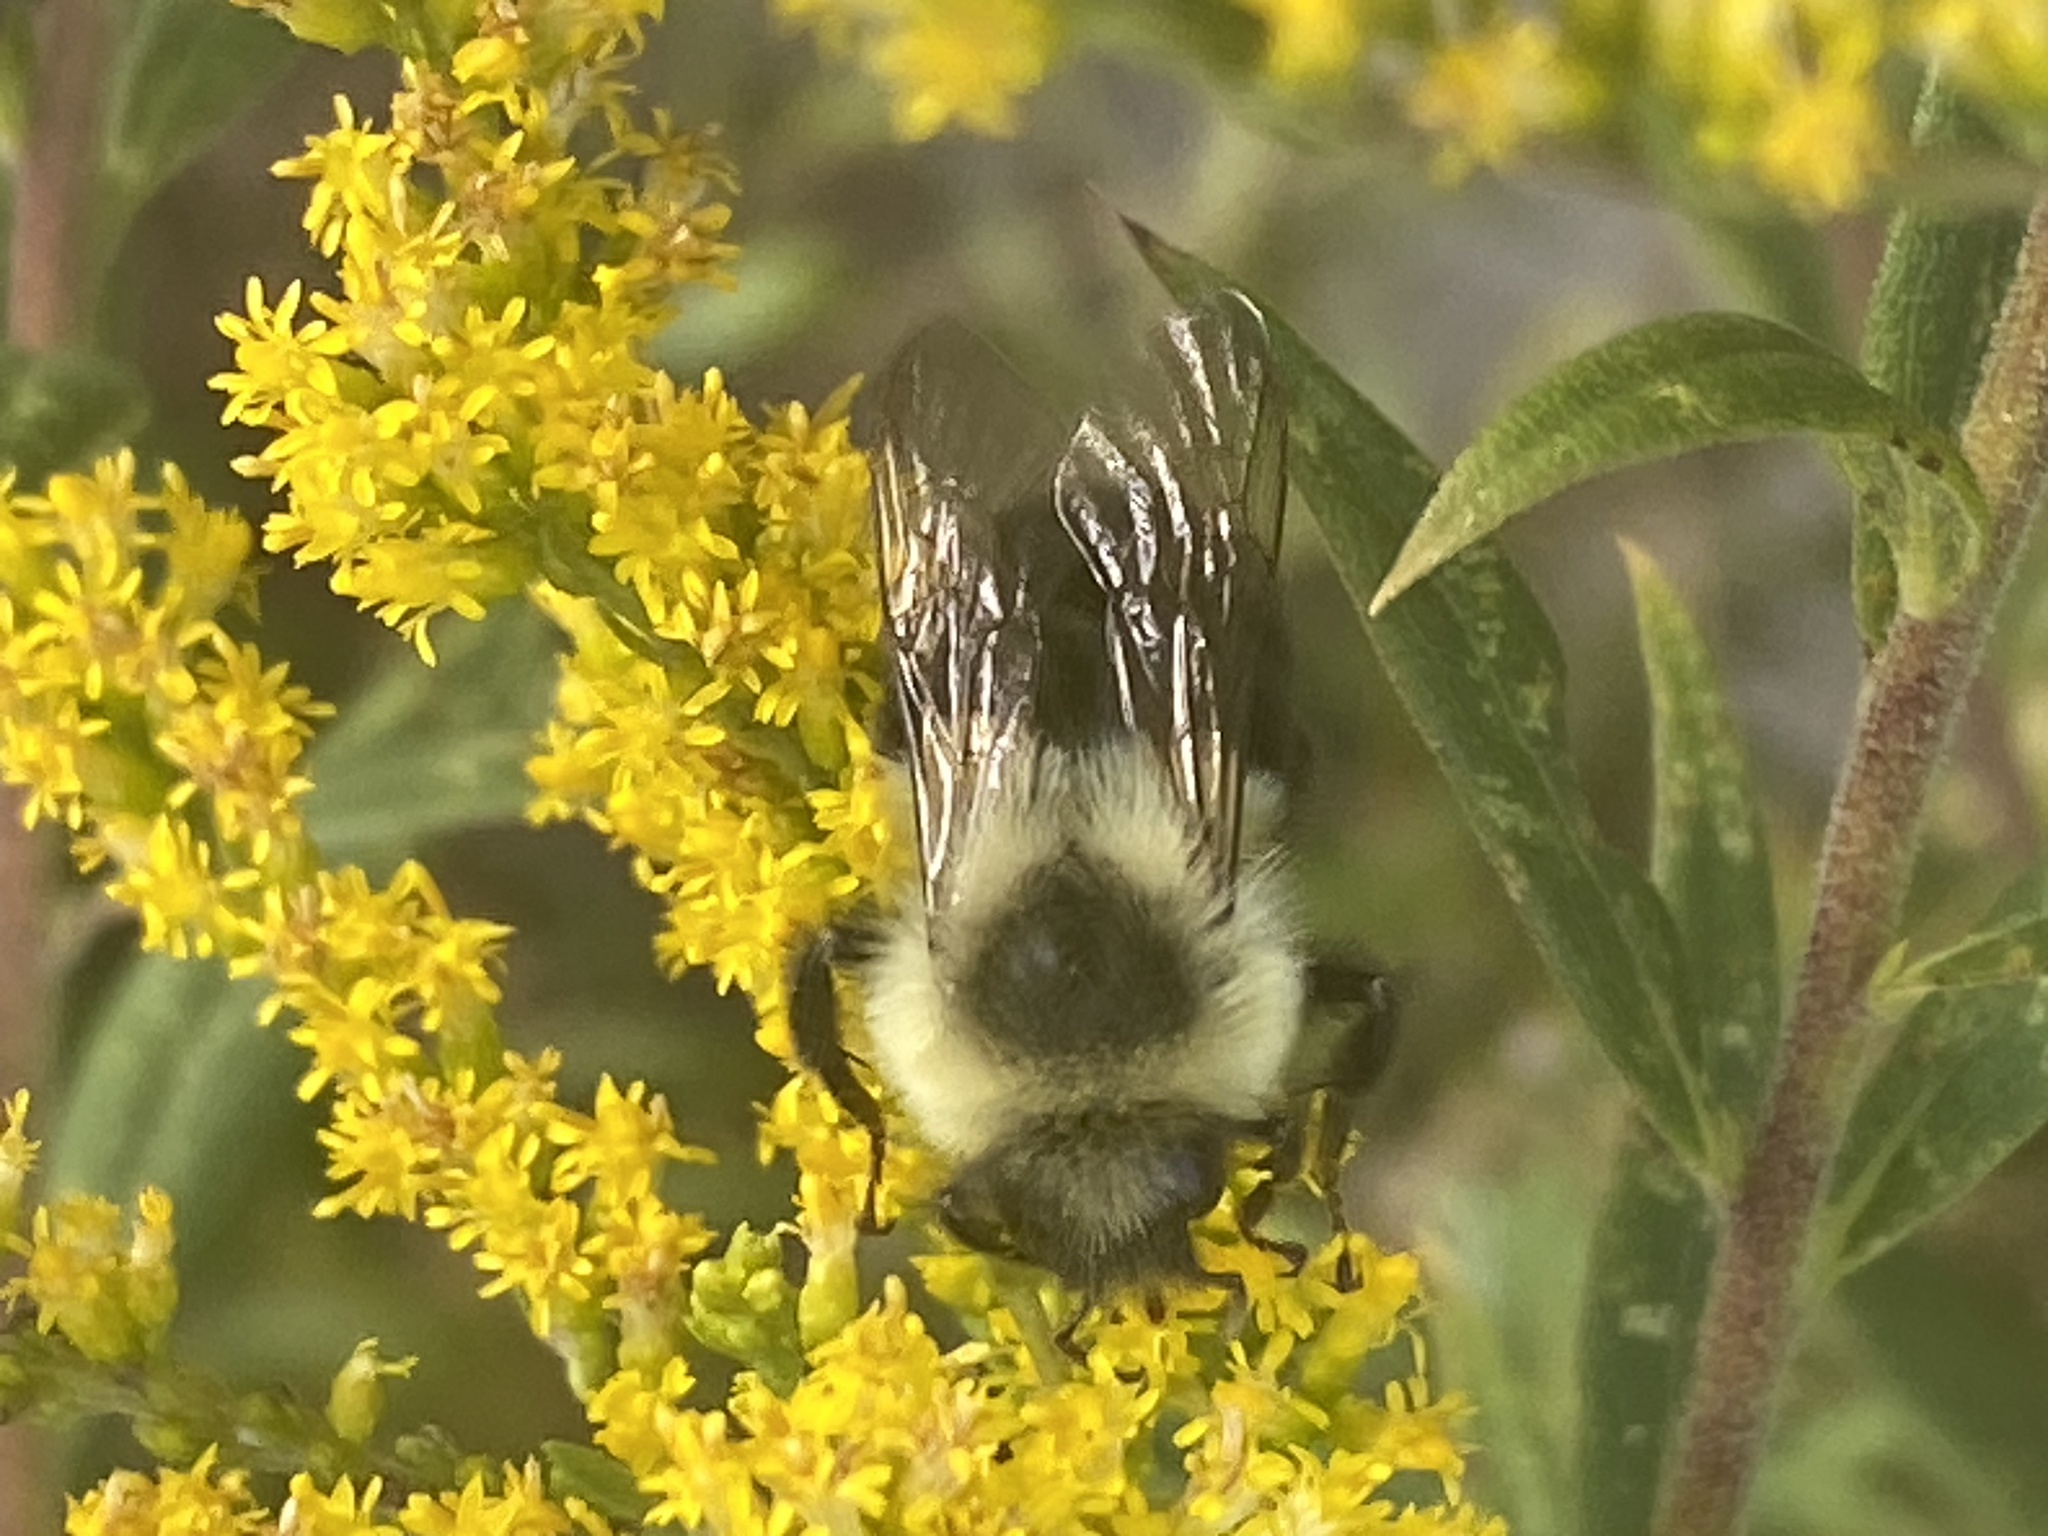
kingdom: Animalia
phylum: Arthropoda
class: Insecta
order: Hymenoptera
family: Apidae
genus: Bombus
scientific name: Bombus impatiens
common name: Common eastern bumble bee
